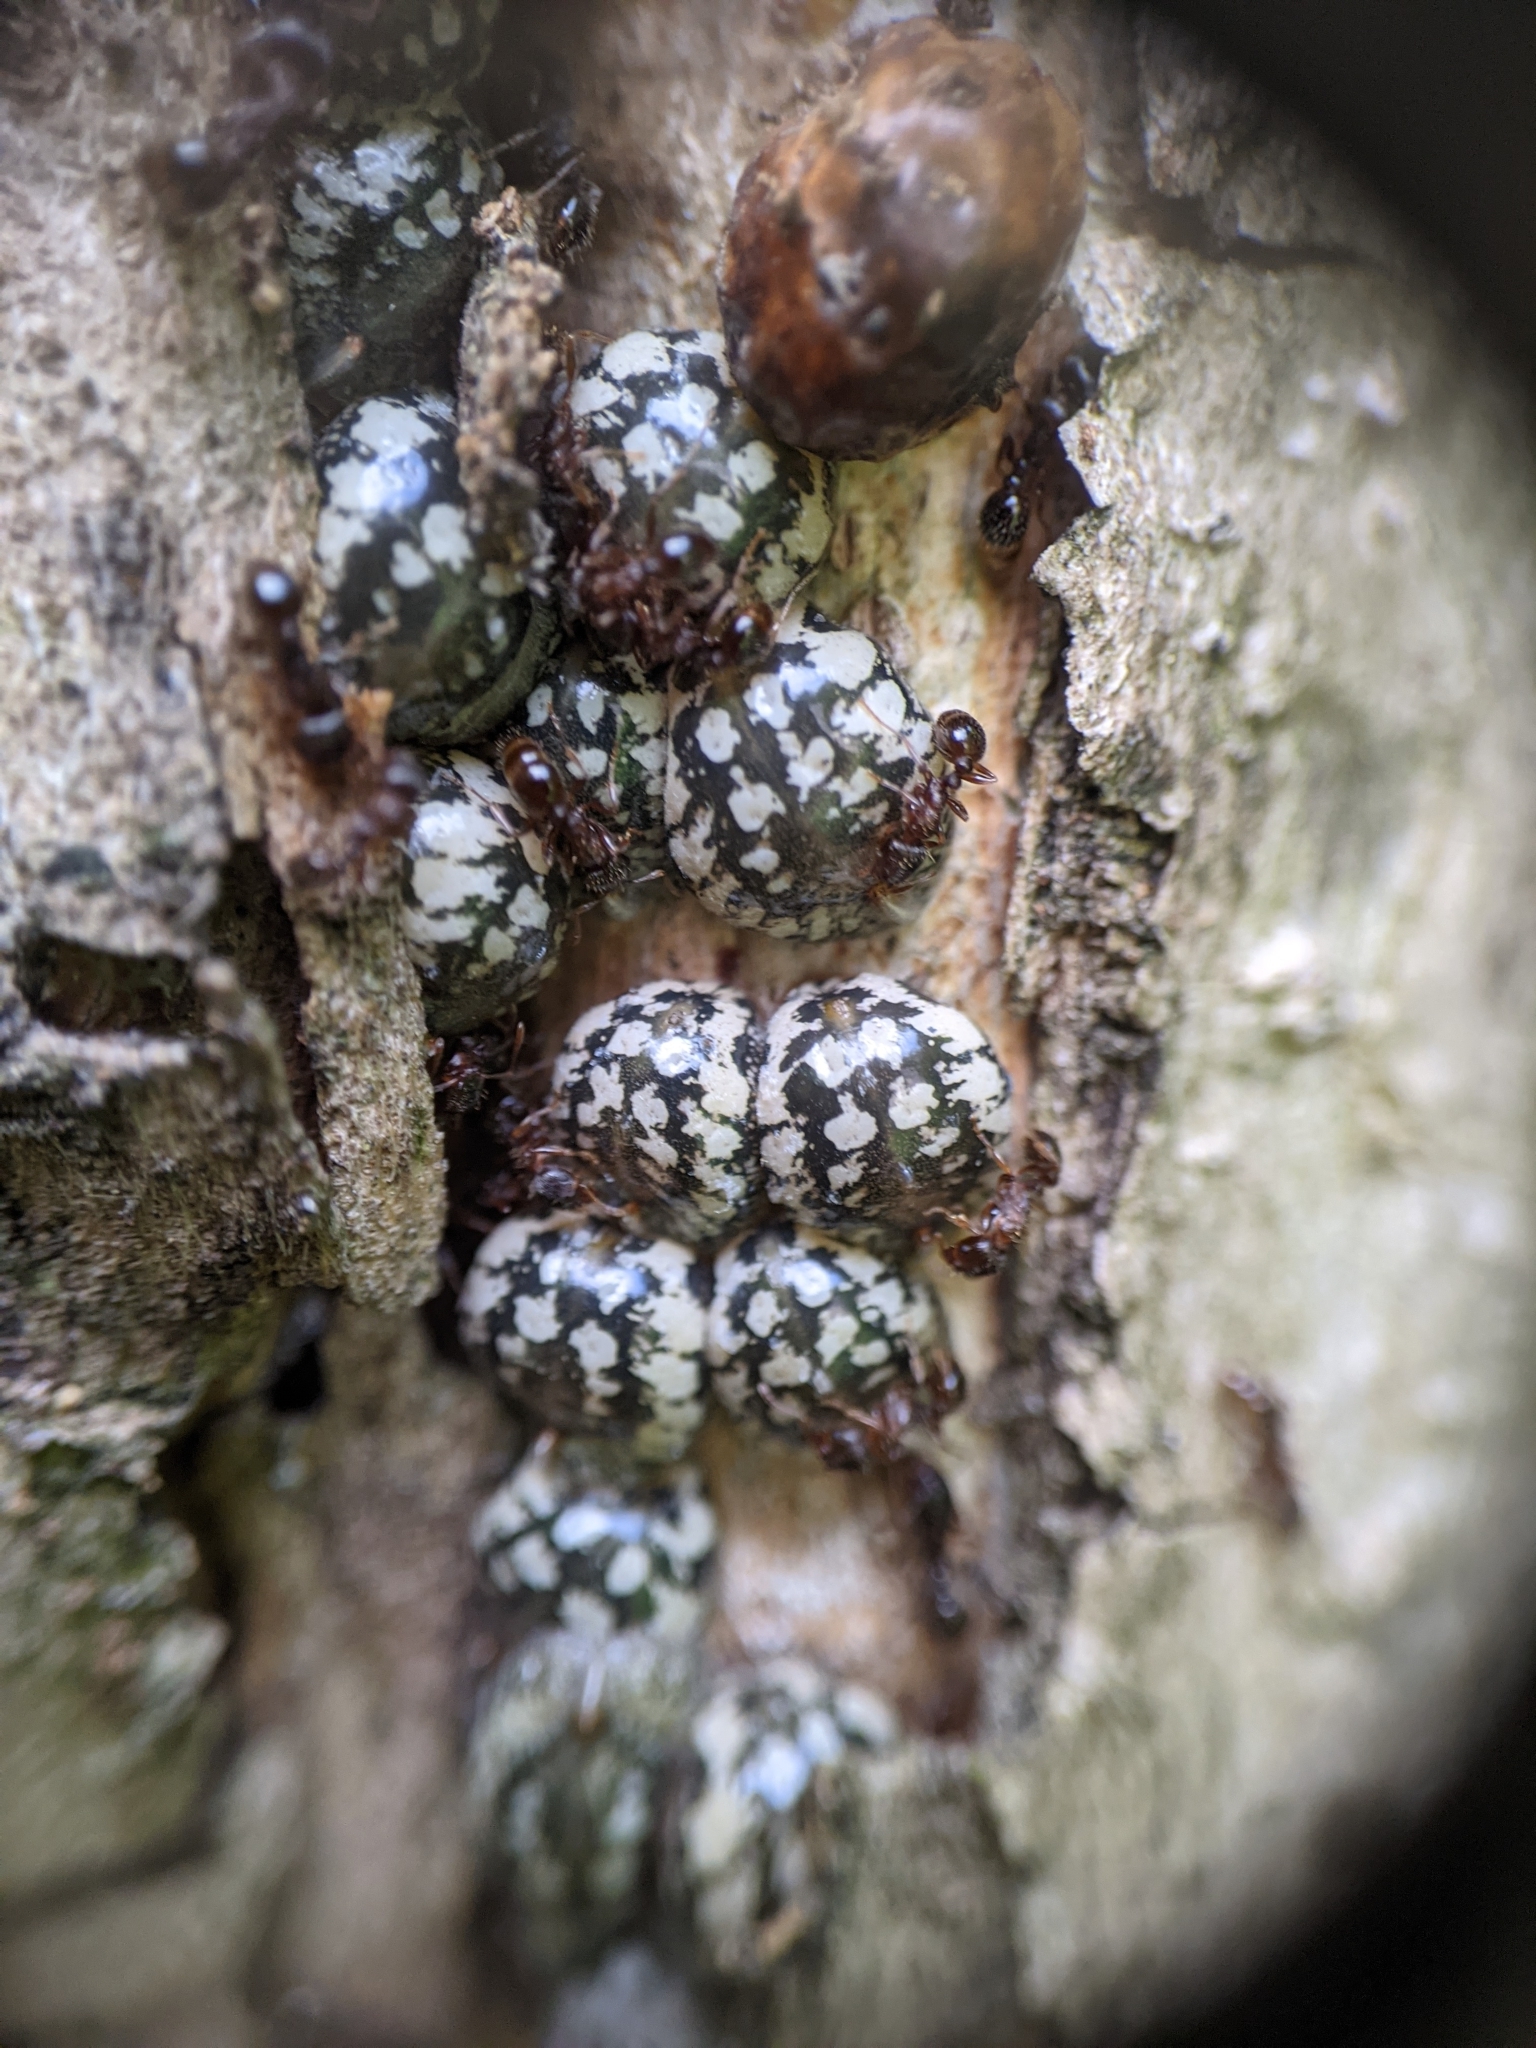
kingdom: Animalia
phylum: Arthropoda
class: Insecta
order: Hemiptera
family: Coccidae
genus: Eulecanium
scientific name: Eulecanium cerasorum
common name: Calico scale
